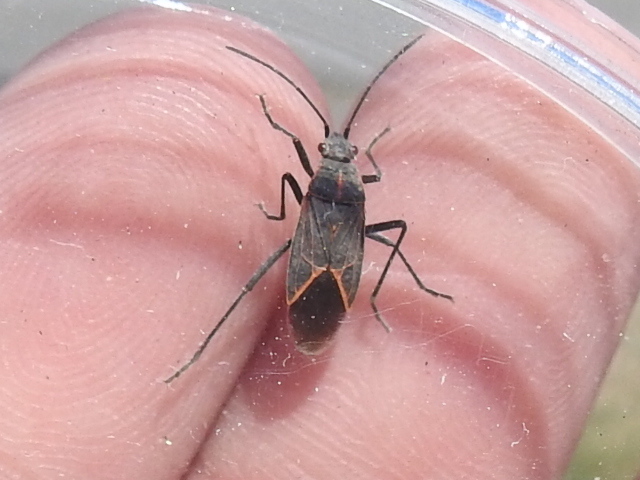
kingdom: Animalia
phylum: Arthropoda
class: Insecta
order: Hemiptera
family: Rhopalidae
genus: Boisea
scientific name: Boisea rubrolineata
